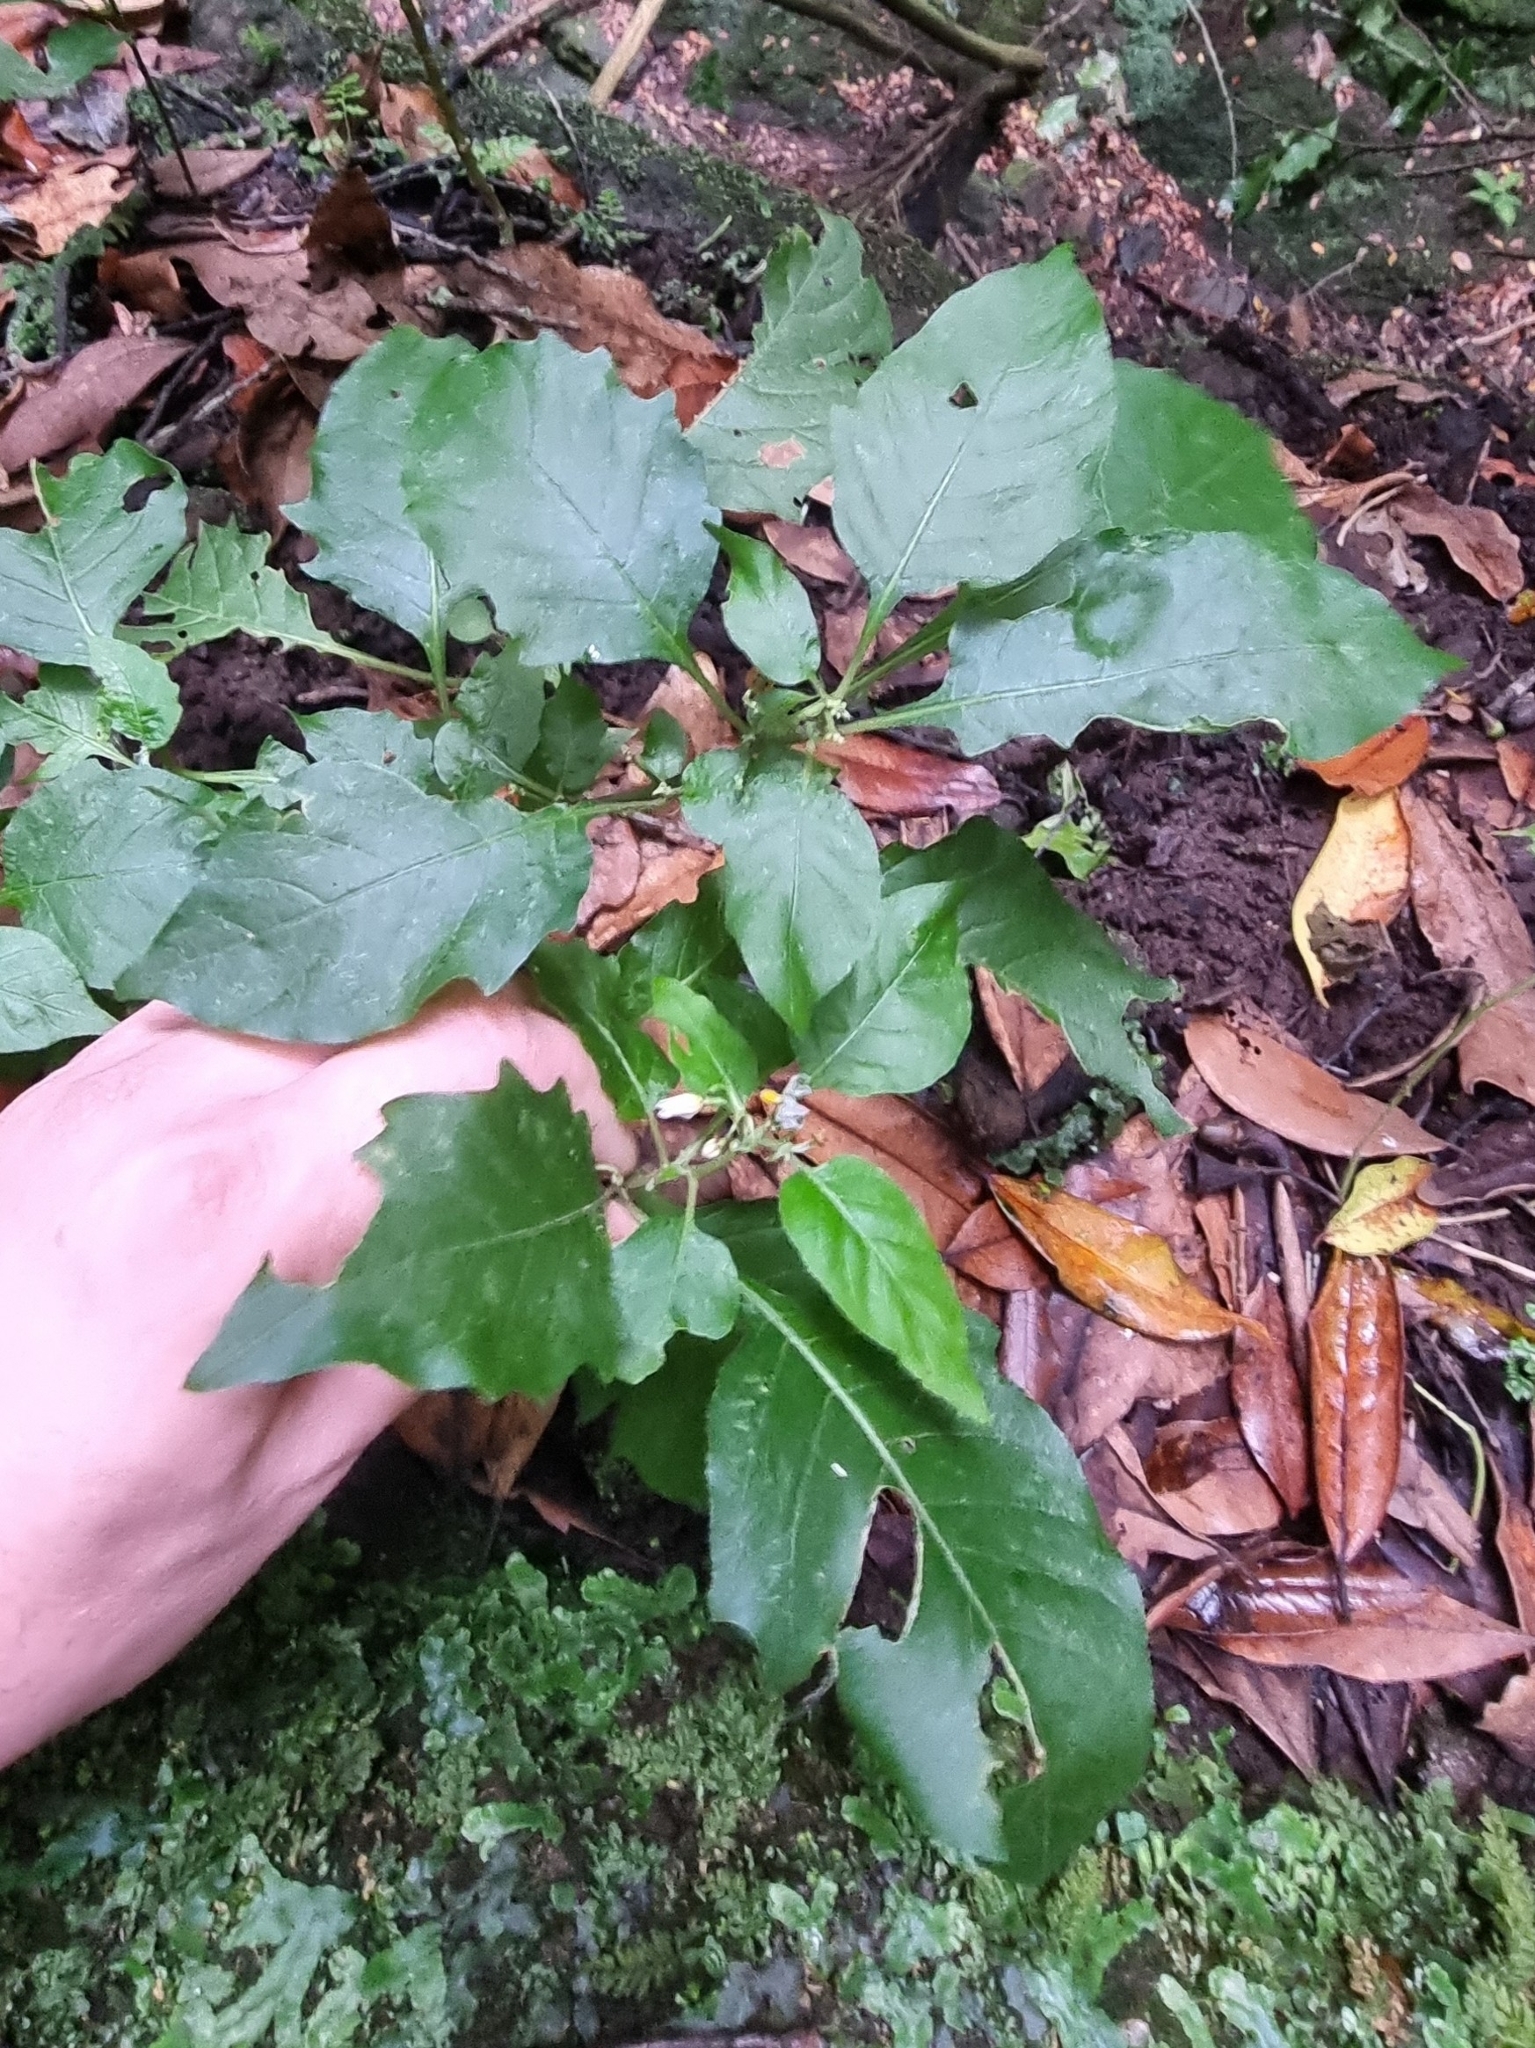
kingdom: Plantae
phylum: Tracheophyta
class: Magnoliopsida
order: Solanales
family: Solanaceae
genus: Solanum
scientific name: Solanum villosum
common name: Red nightshade
